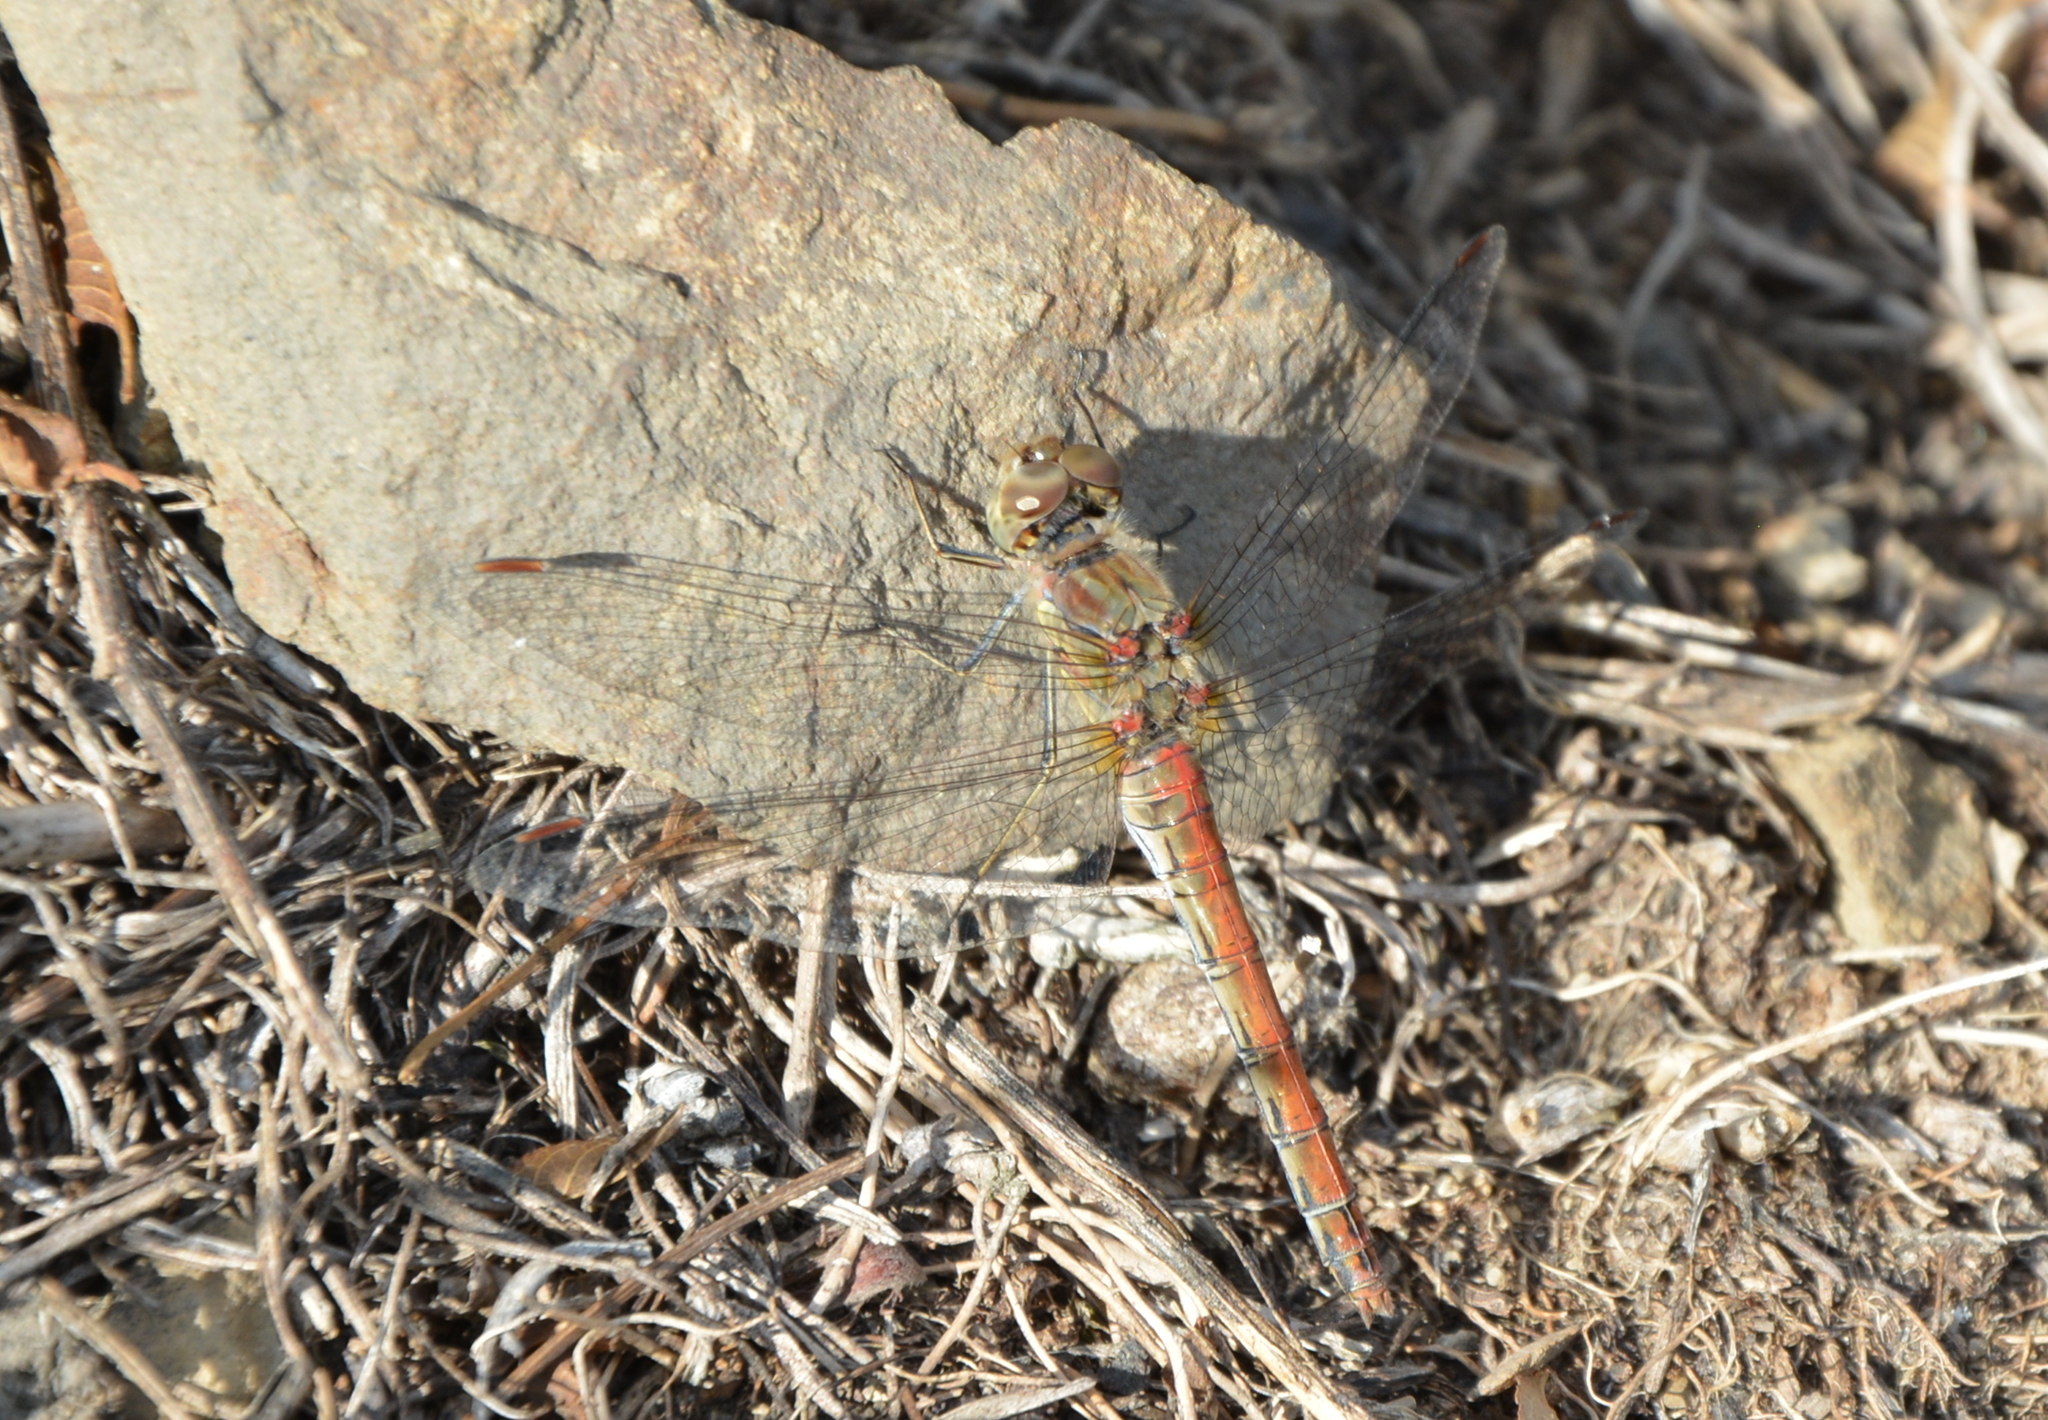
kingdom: Animalia
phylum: Arthropoda
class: Insecta
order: Odonata
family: Libellulidae
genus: Sympetrum
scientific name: Sympetrum striolatum
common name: Common darter
